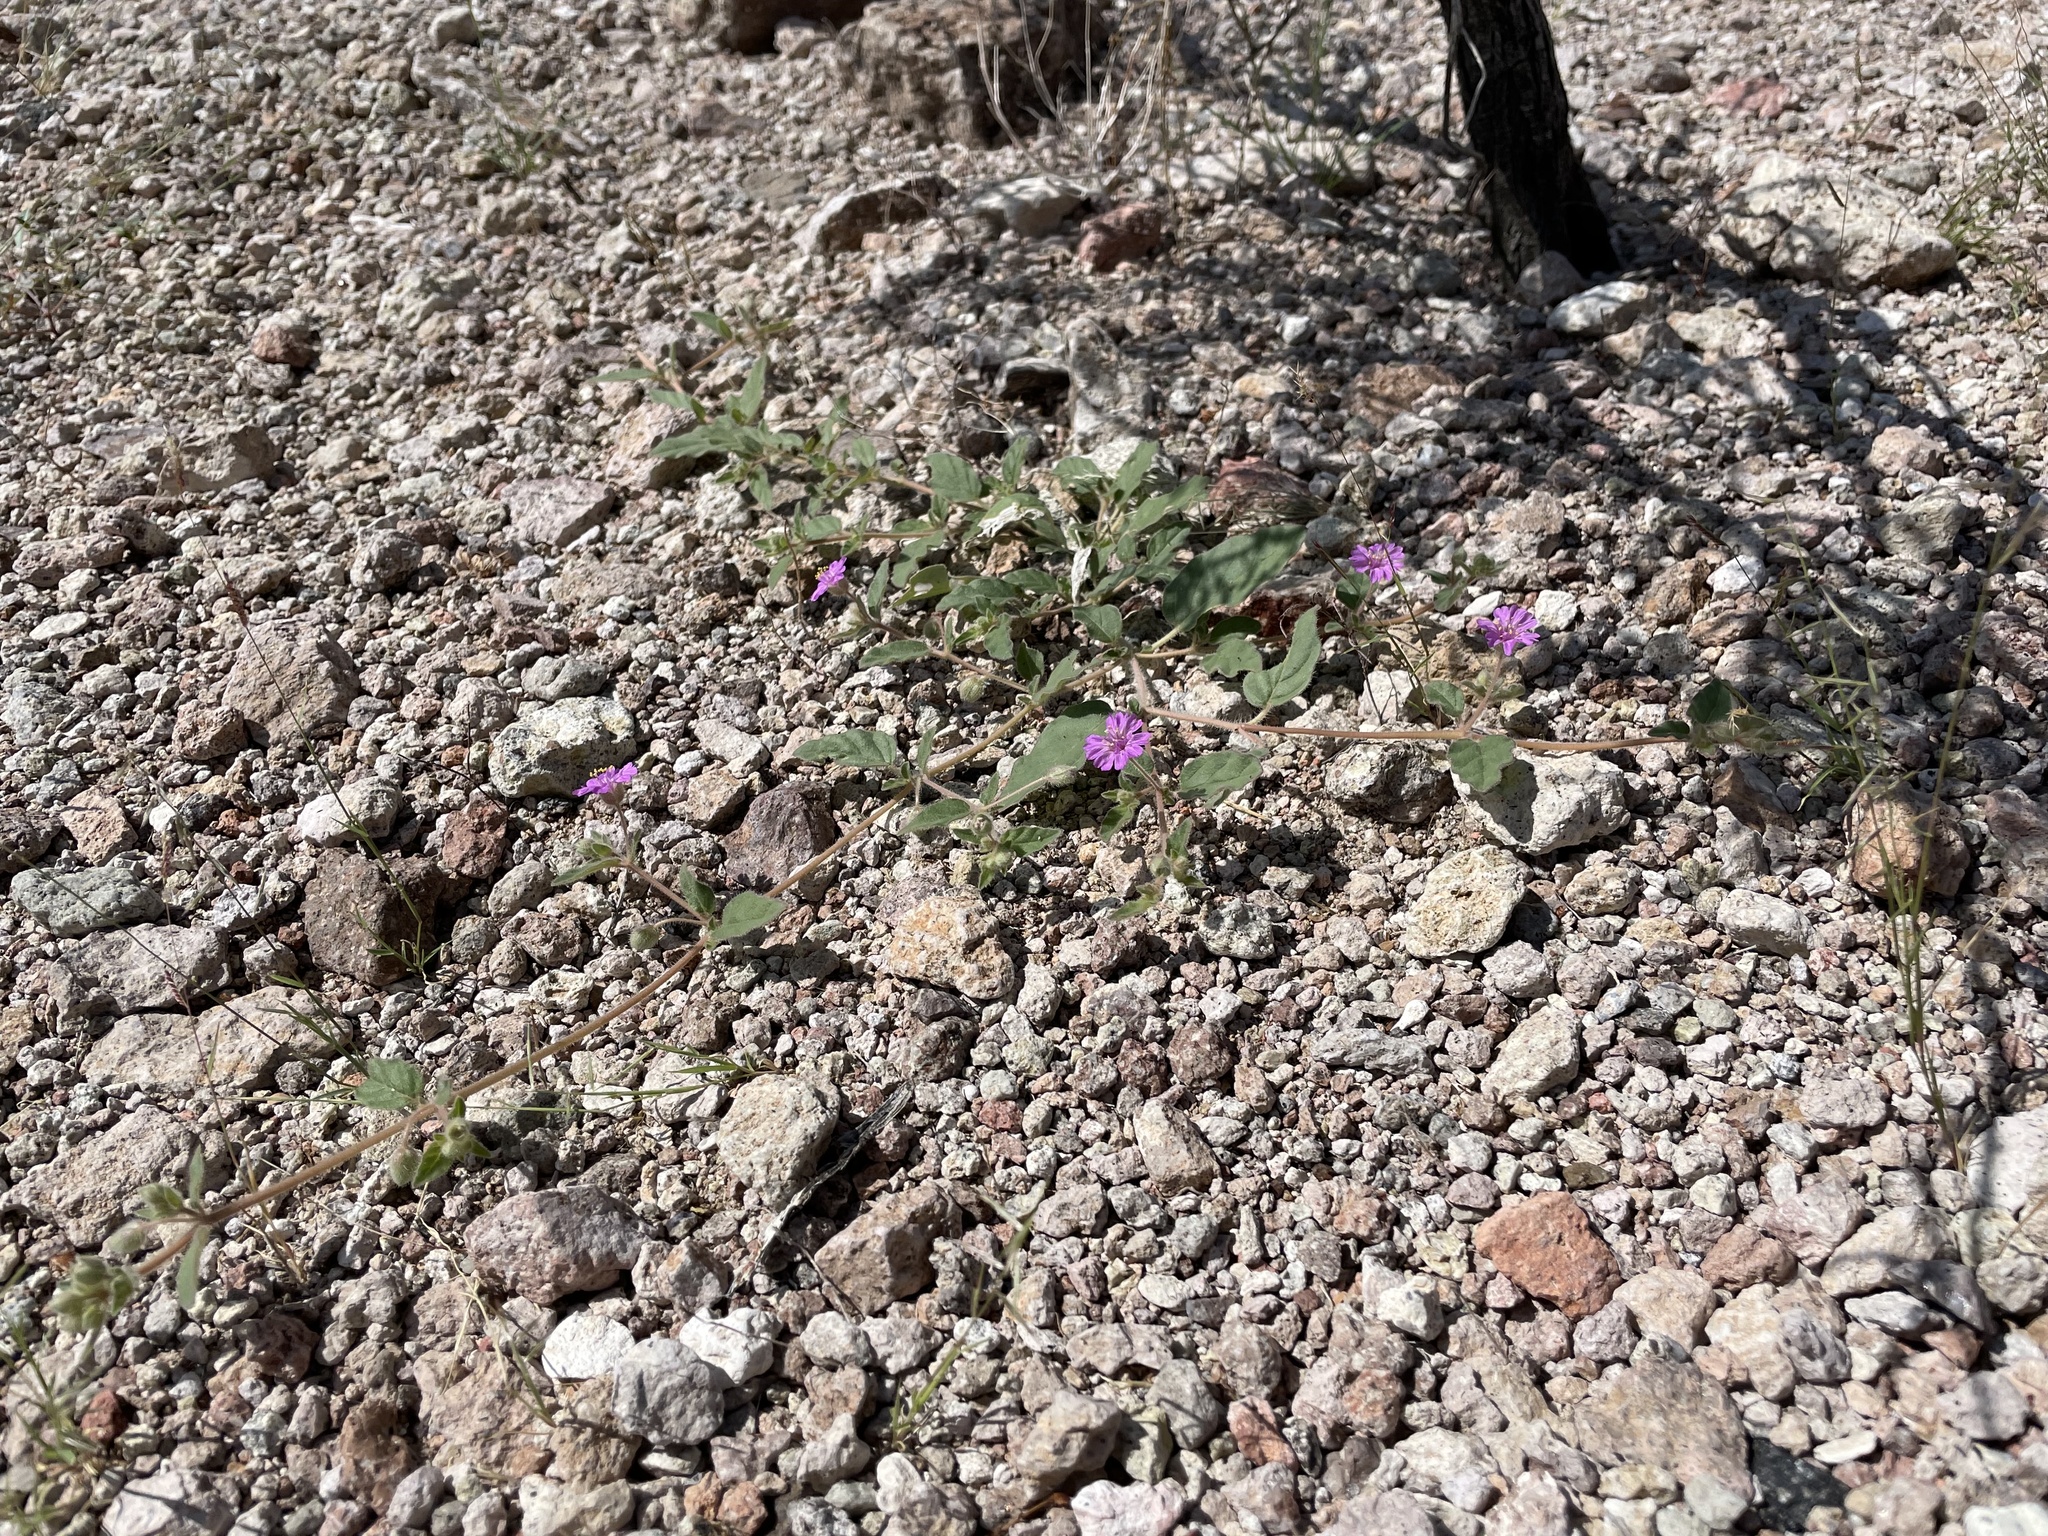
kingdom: Plantae
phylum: Tracheophyta
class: Magnoliopsida
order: Caryophyllales
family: Nyctaginaceae
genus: Allionia
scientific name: Allionia incarnata
